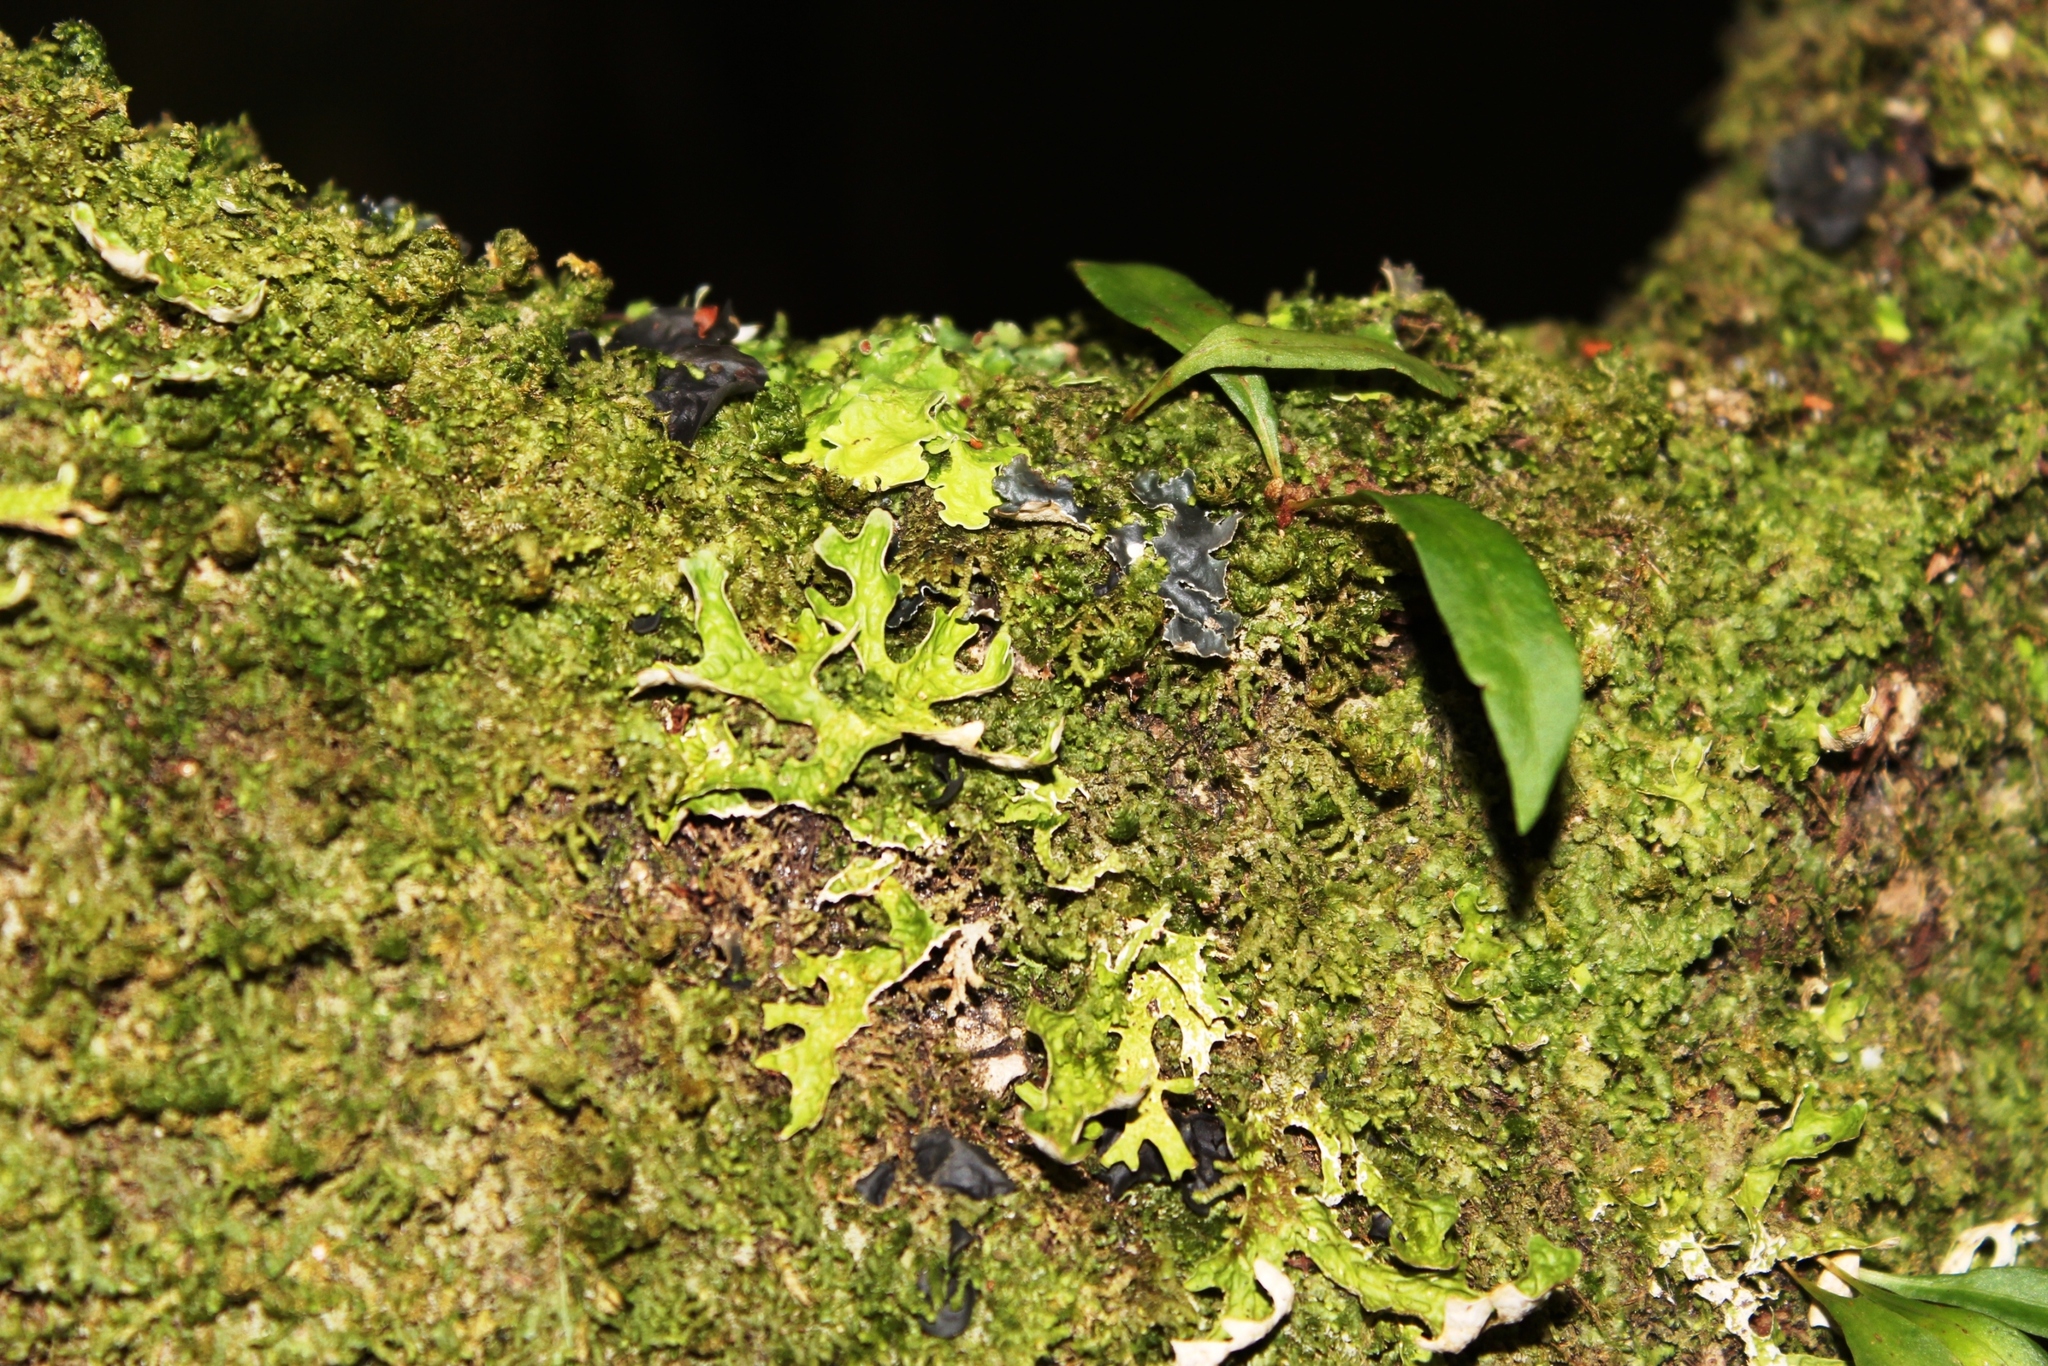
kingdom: Fungi
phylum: Ascomycota
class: Lecanoromycetes
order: Peltigerales
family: Lobariaceae
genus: Lobaria
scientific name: Lobaria pulmonaria
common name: Lungwort
